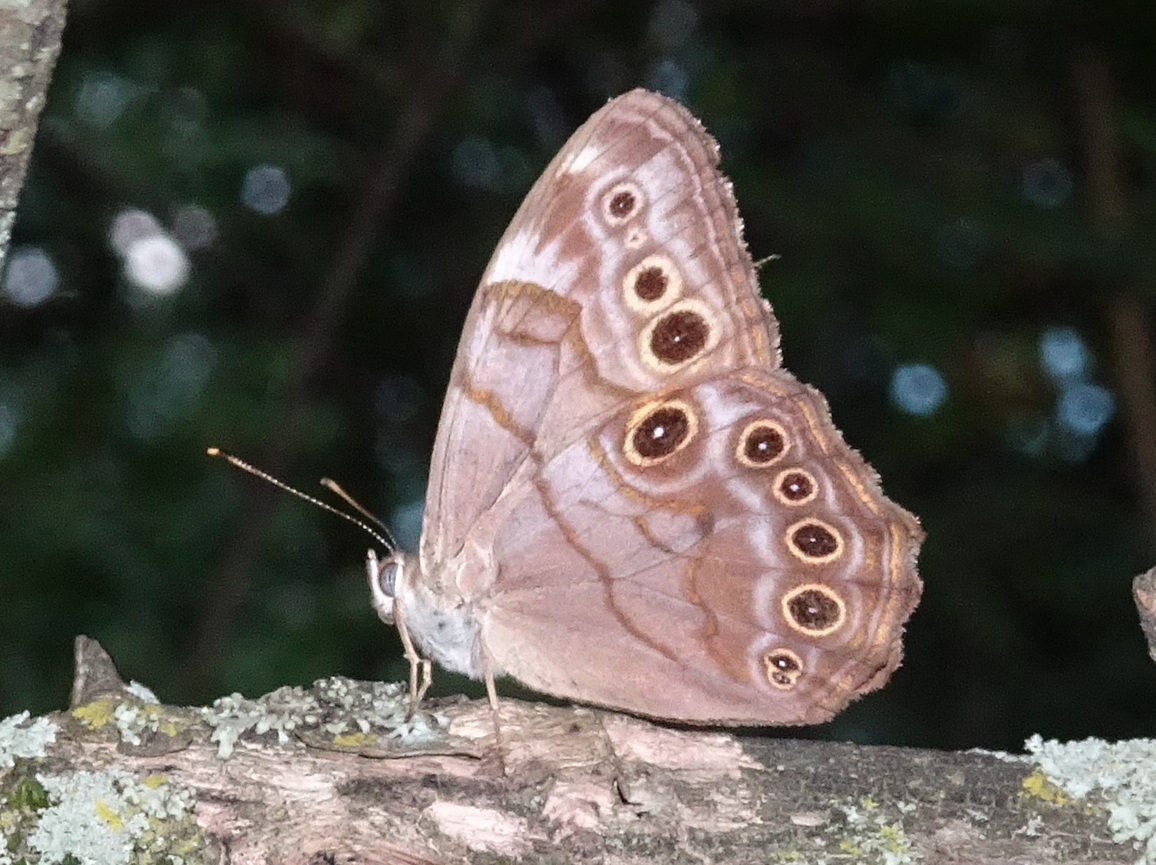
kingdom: Animalia
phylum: Arthropoda
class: Insecta
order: Lepidoptera
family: Nymphalidae
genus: Lethe
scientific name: Lethe anthedon
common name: Northern pearly-eye
